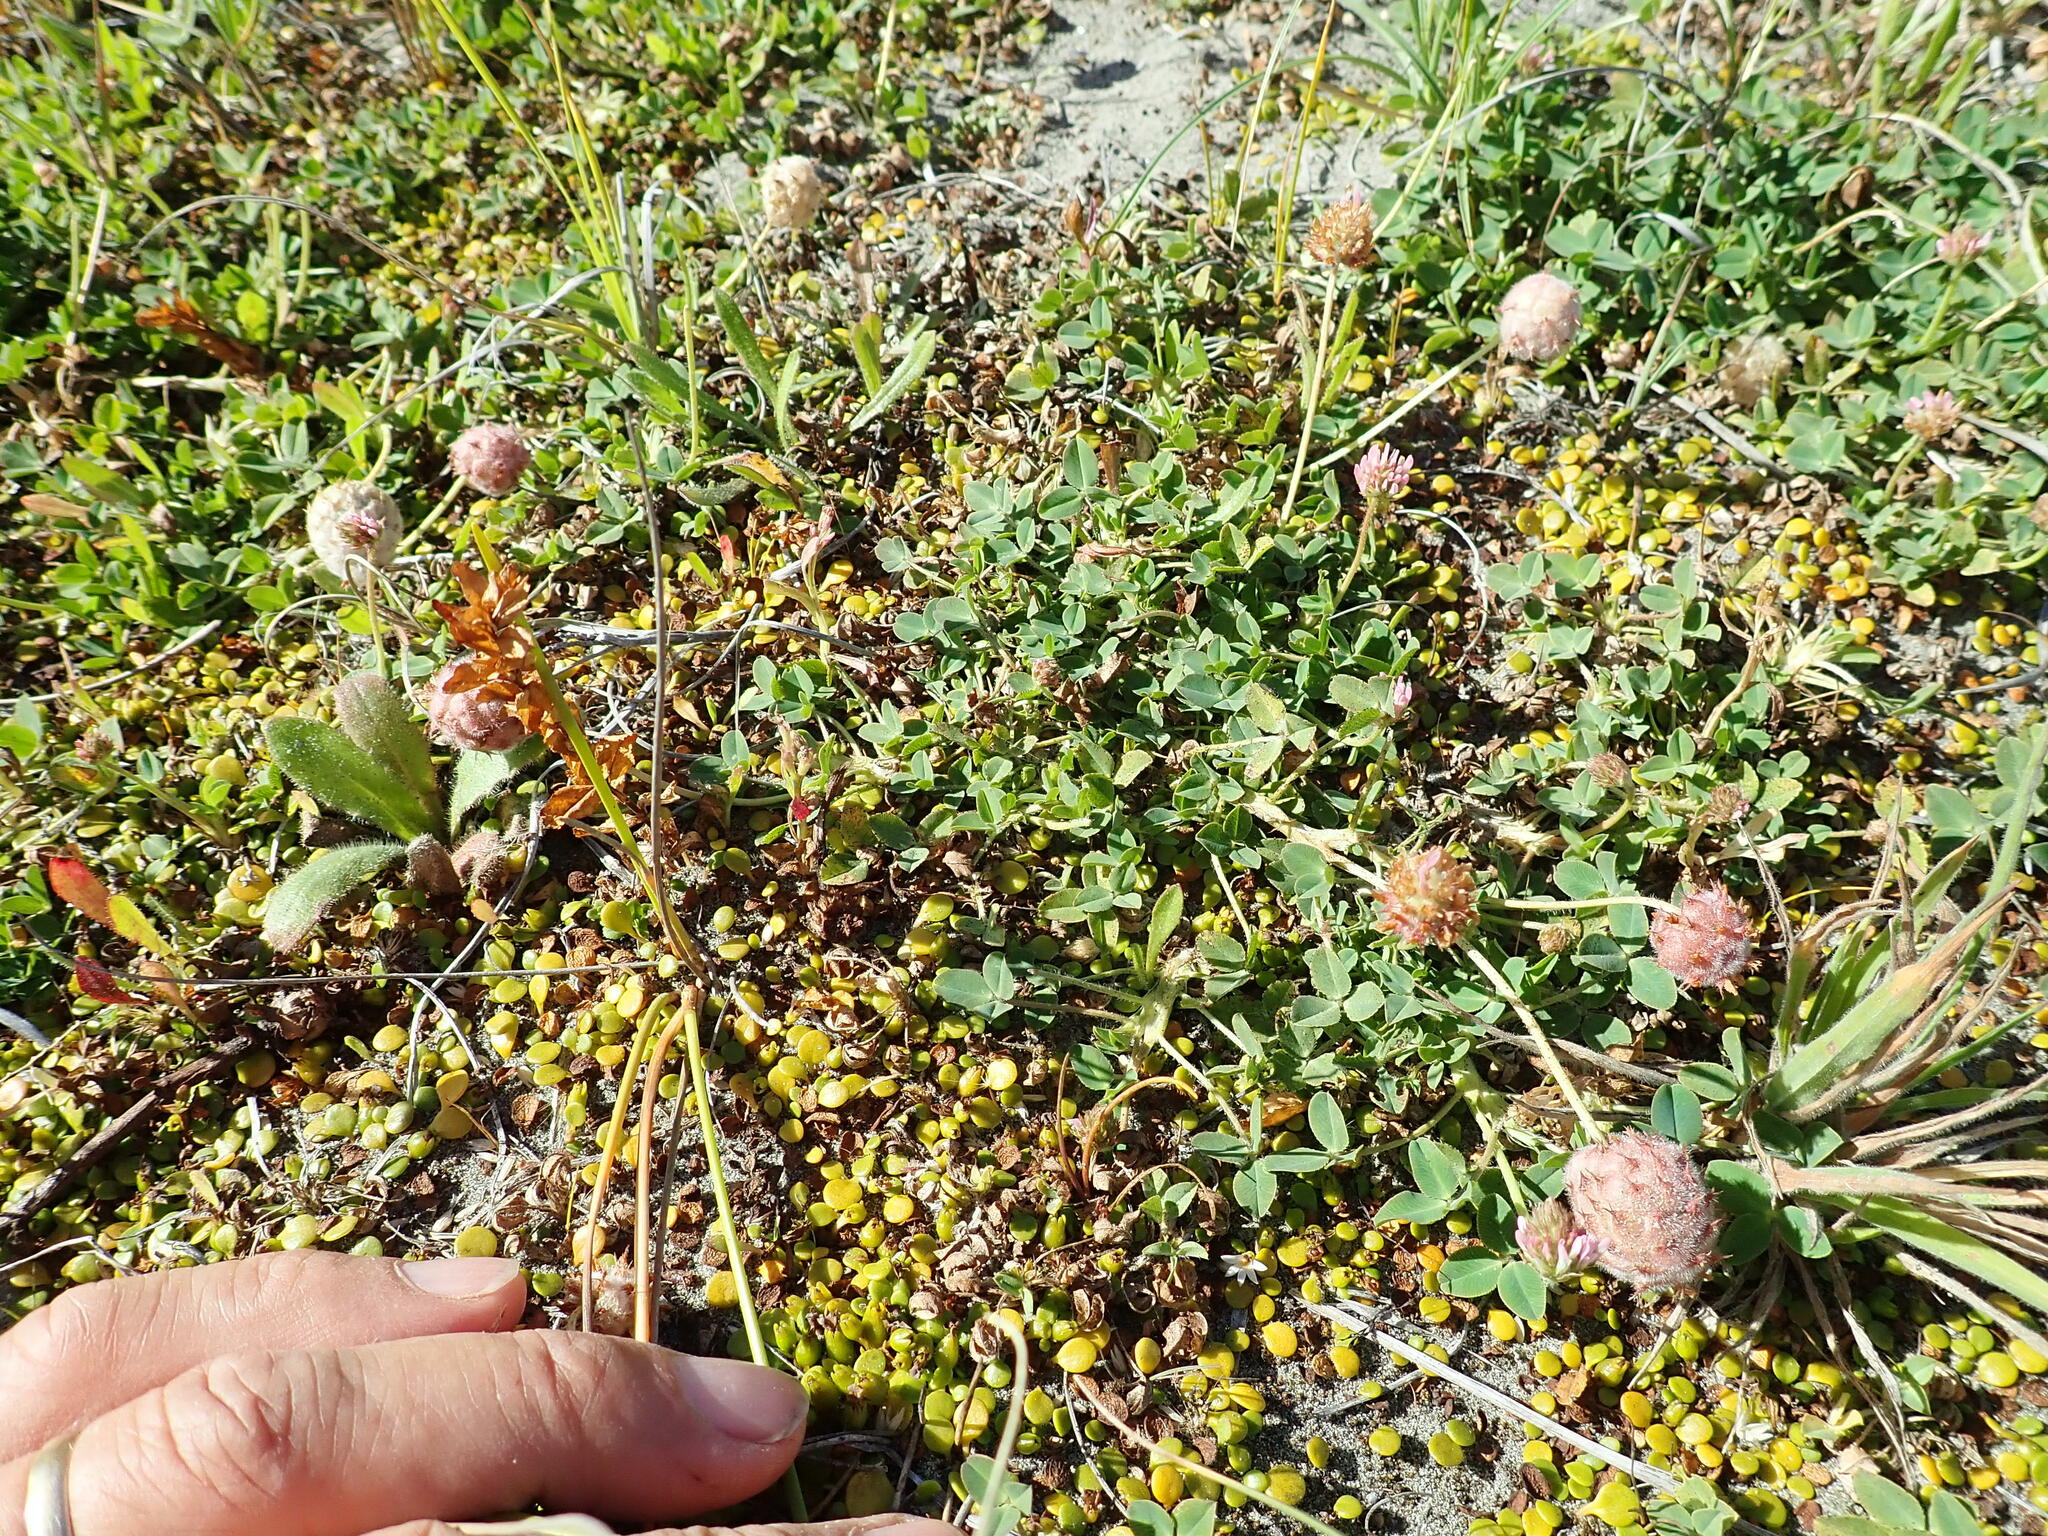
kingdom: Plantae
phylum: Tracheophyta
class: Magnoliopsida
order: Fabales
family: Fabaceae
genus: Trifolium
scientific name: Trifolium fragiferum
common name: Strawberry clover
